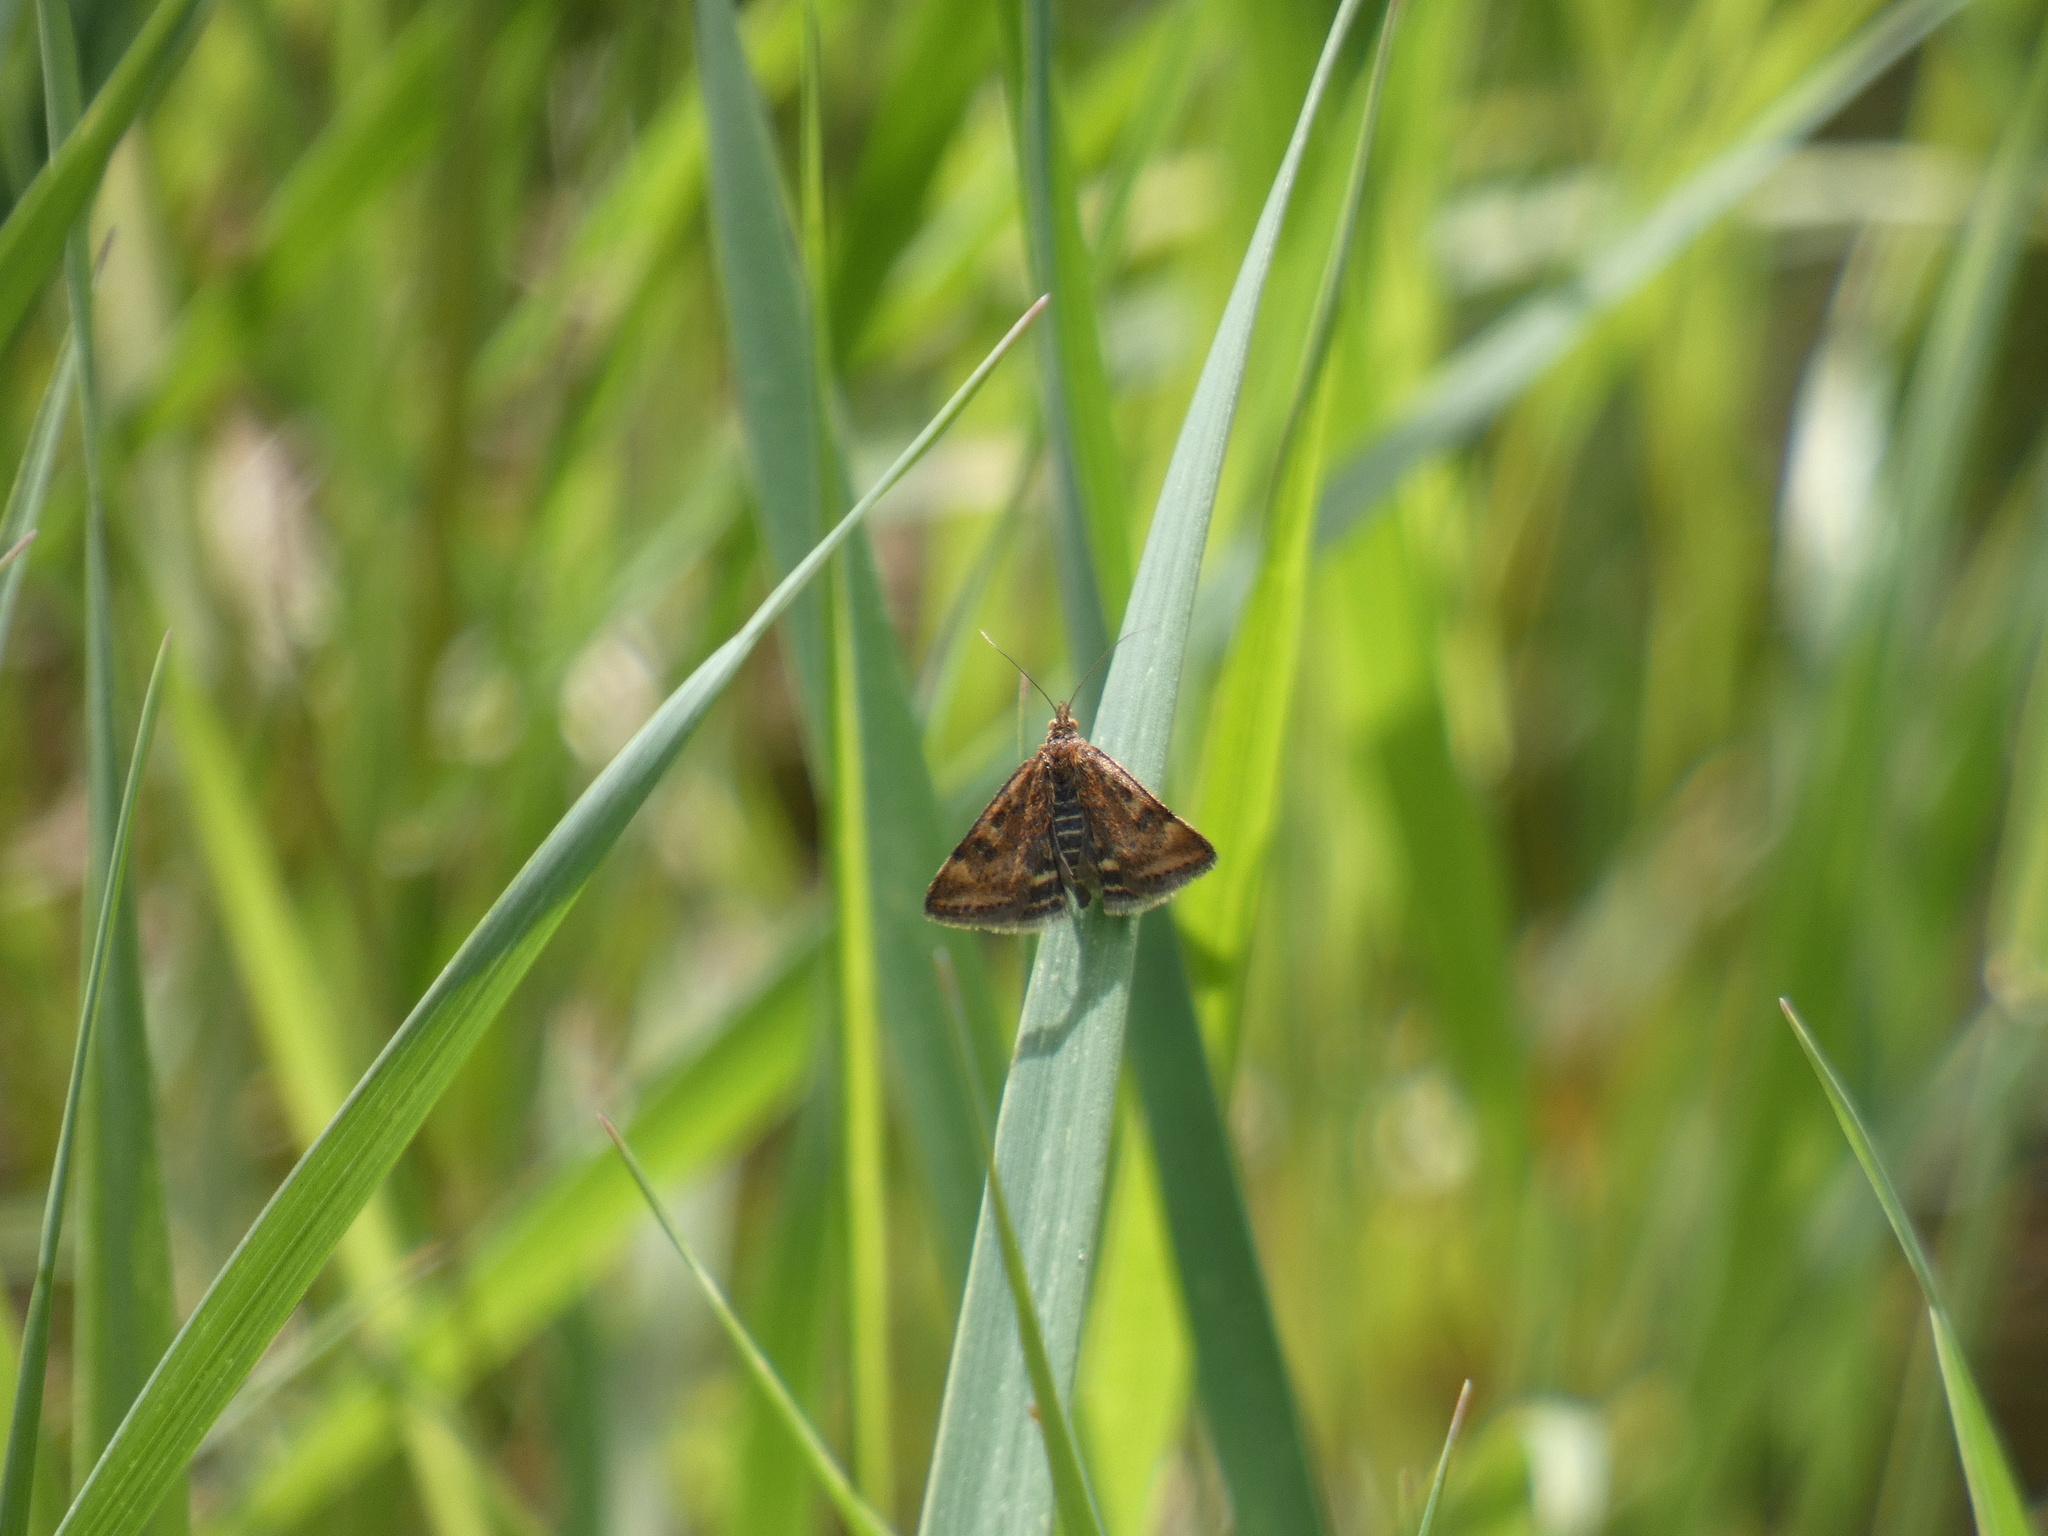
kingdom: Animalia
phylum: Arthropoda
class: Insecta
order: Lepidoptera
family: Crambidae
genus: Pyrausta
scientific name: Pyrausta despicata
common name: Straw-barred pearl
